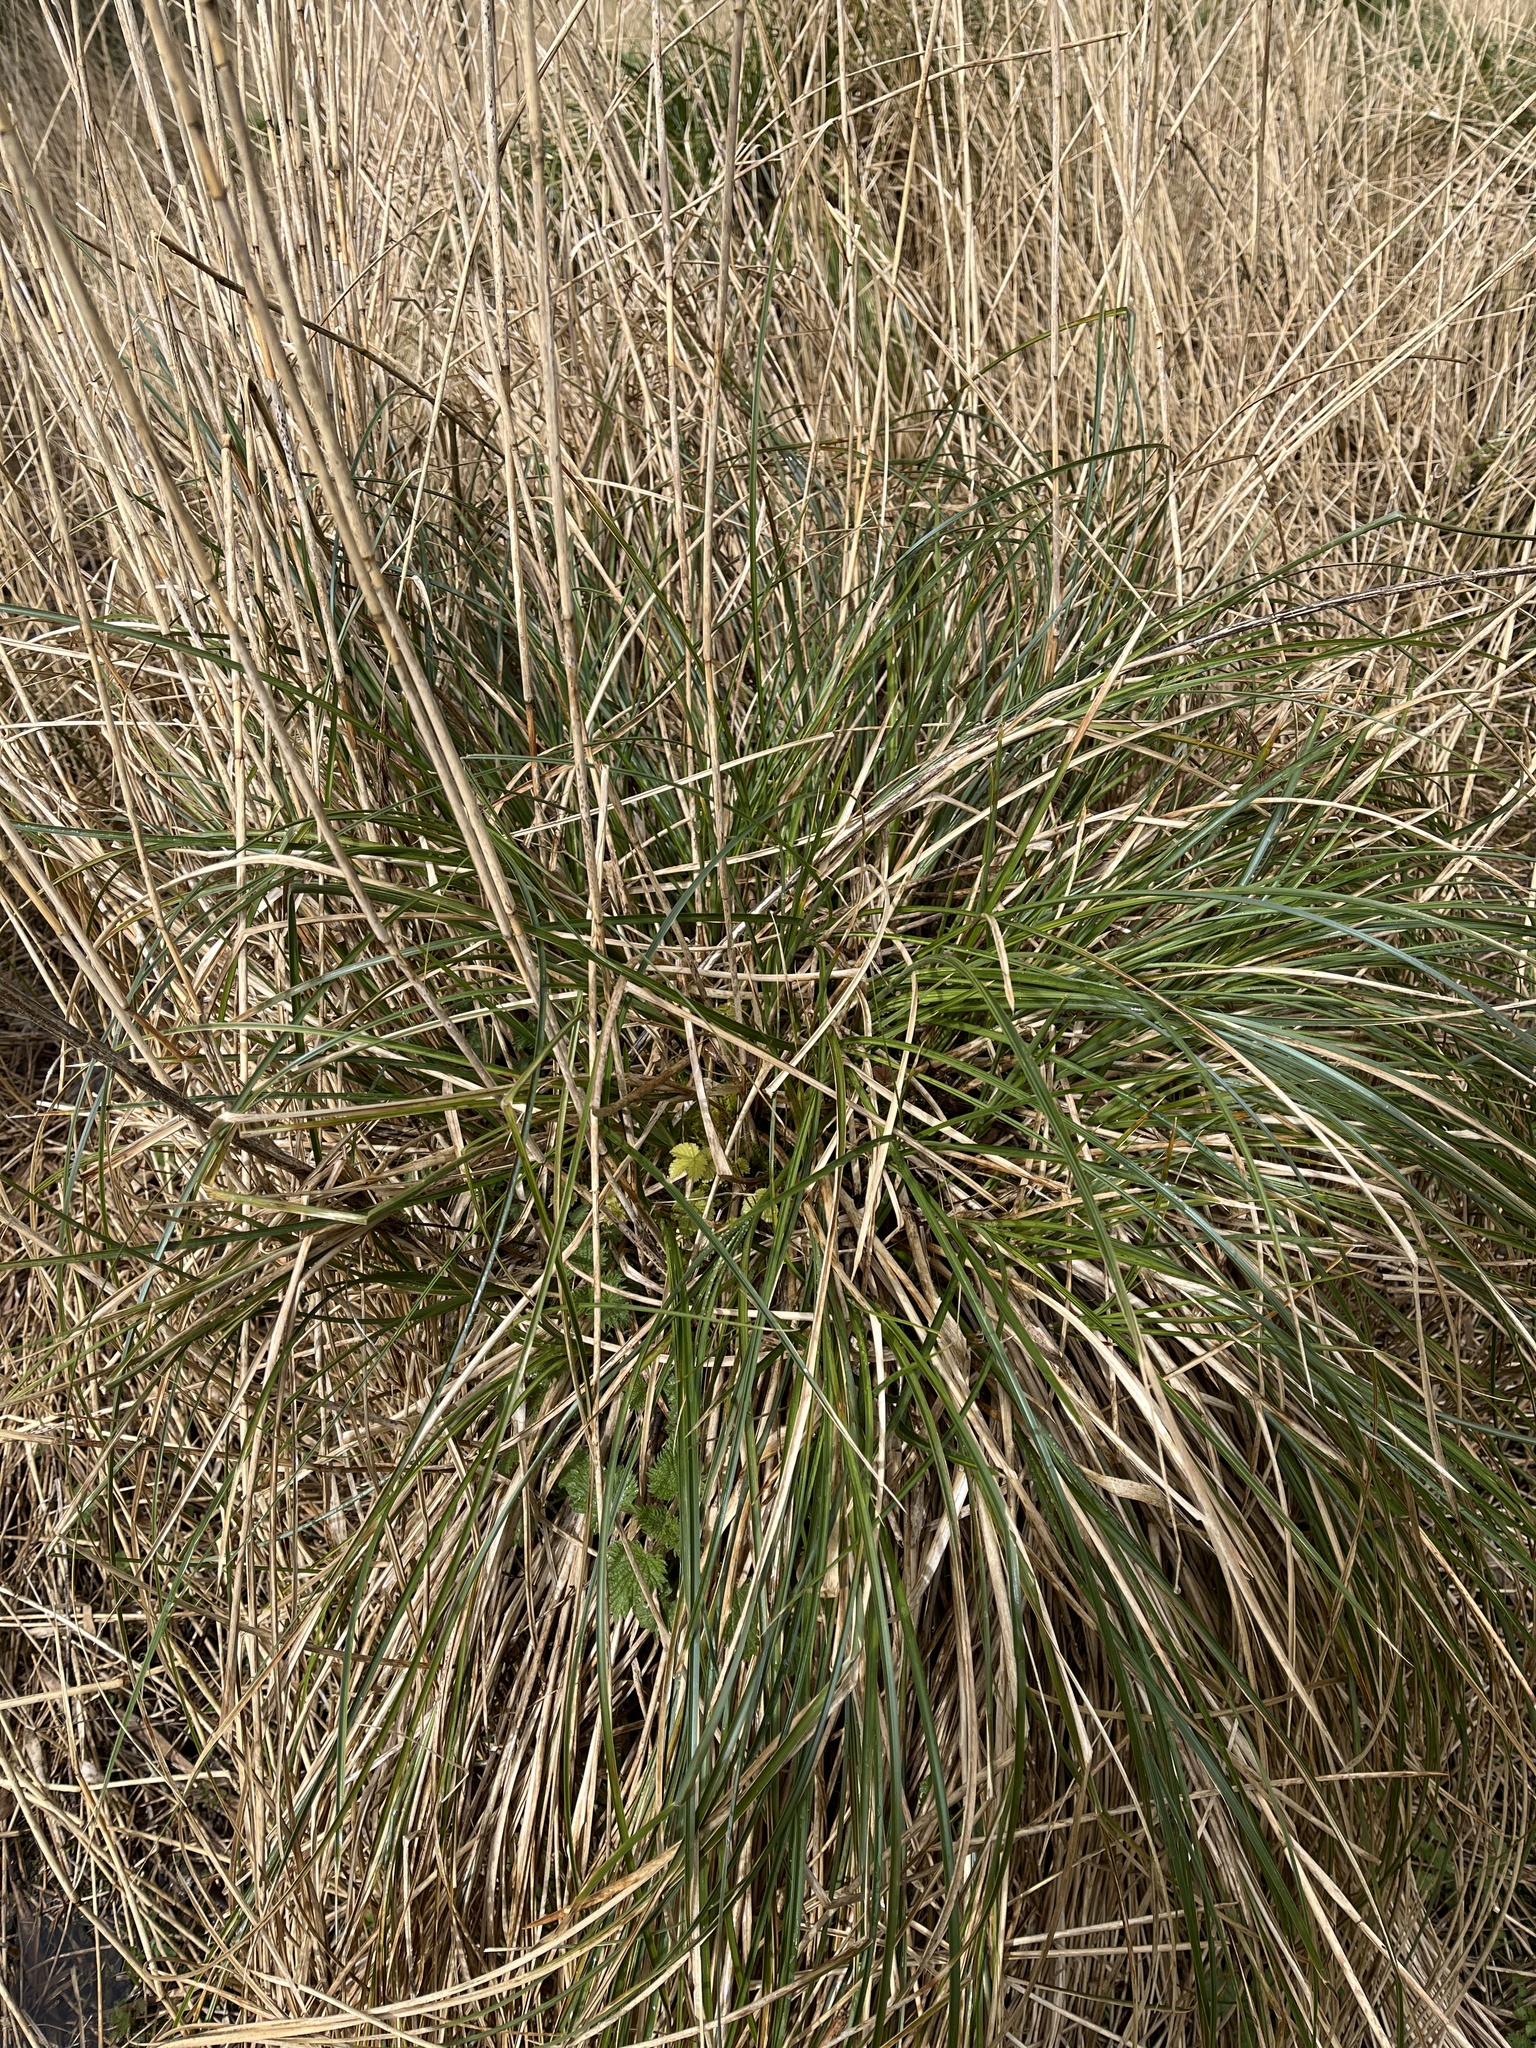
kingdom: Plantae
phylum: Tracheophyta
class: Liliopsida
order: Poales
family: Cyperaceae
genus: Carex
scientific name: Carex paniculata
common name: Greater tussock-sedge
